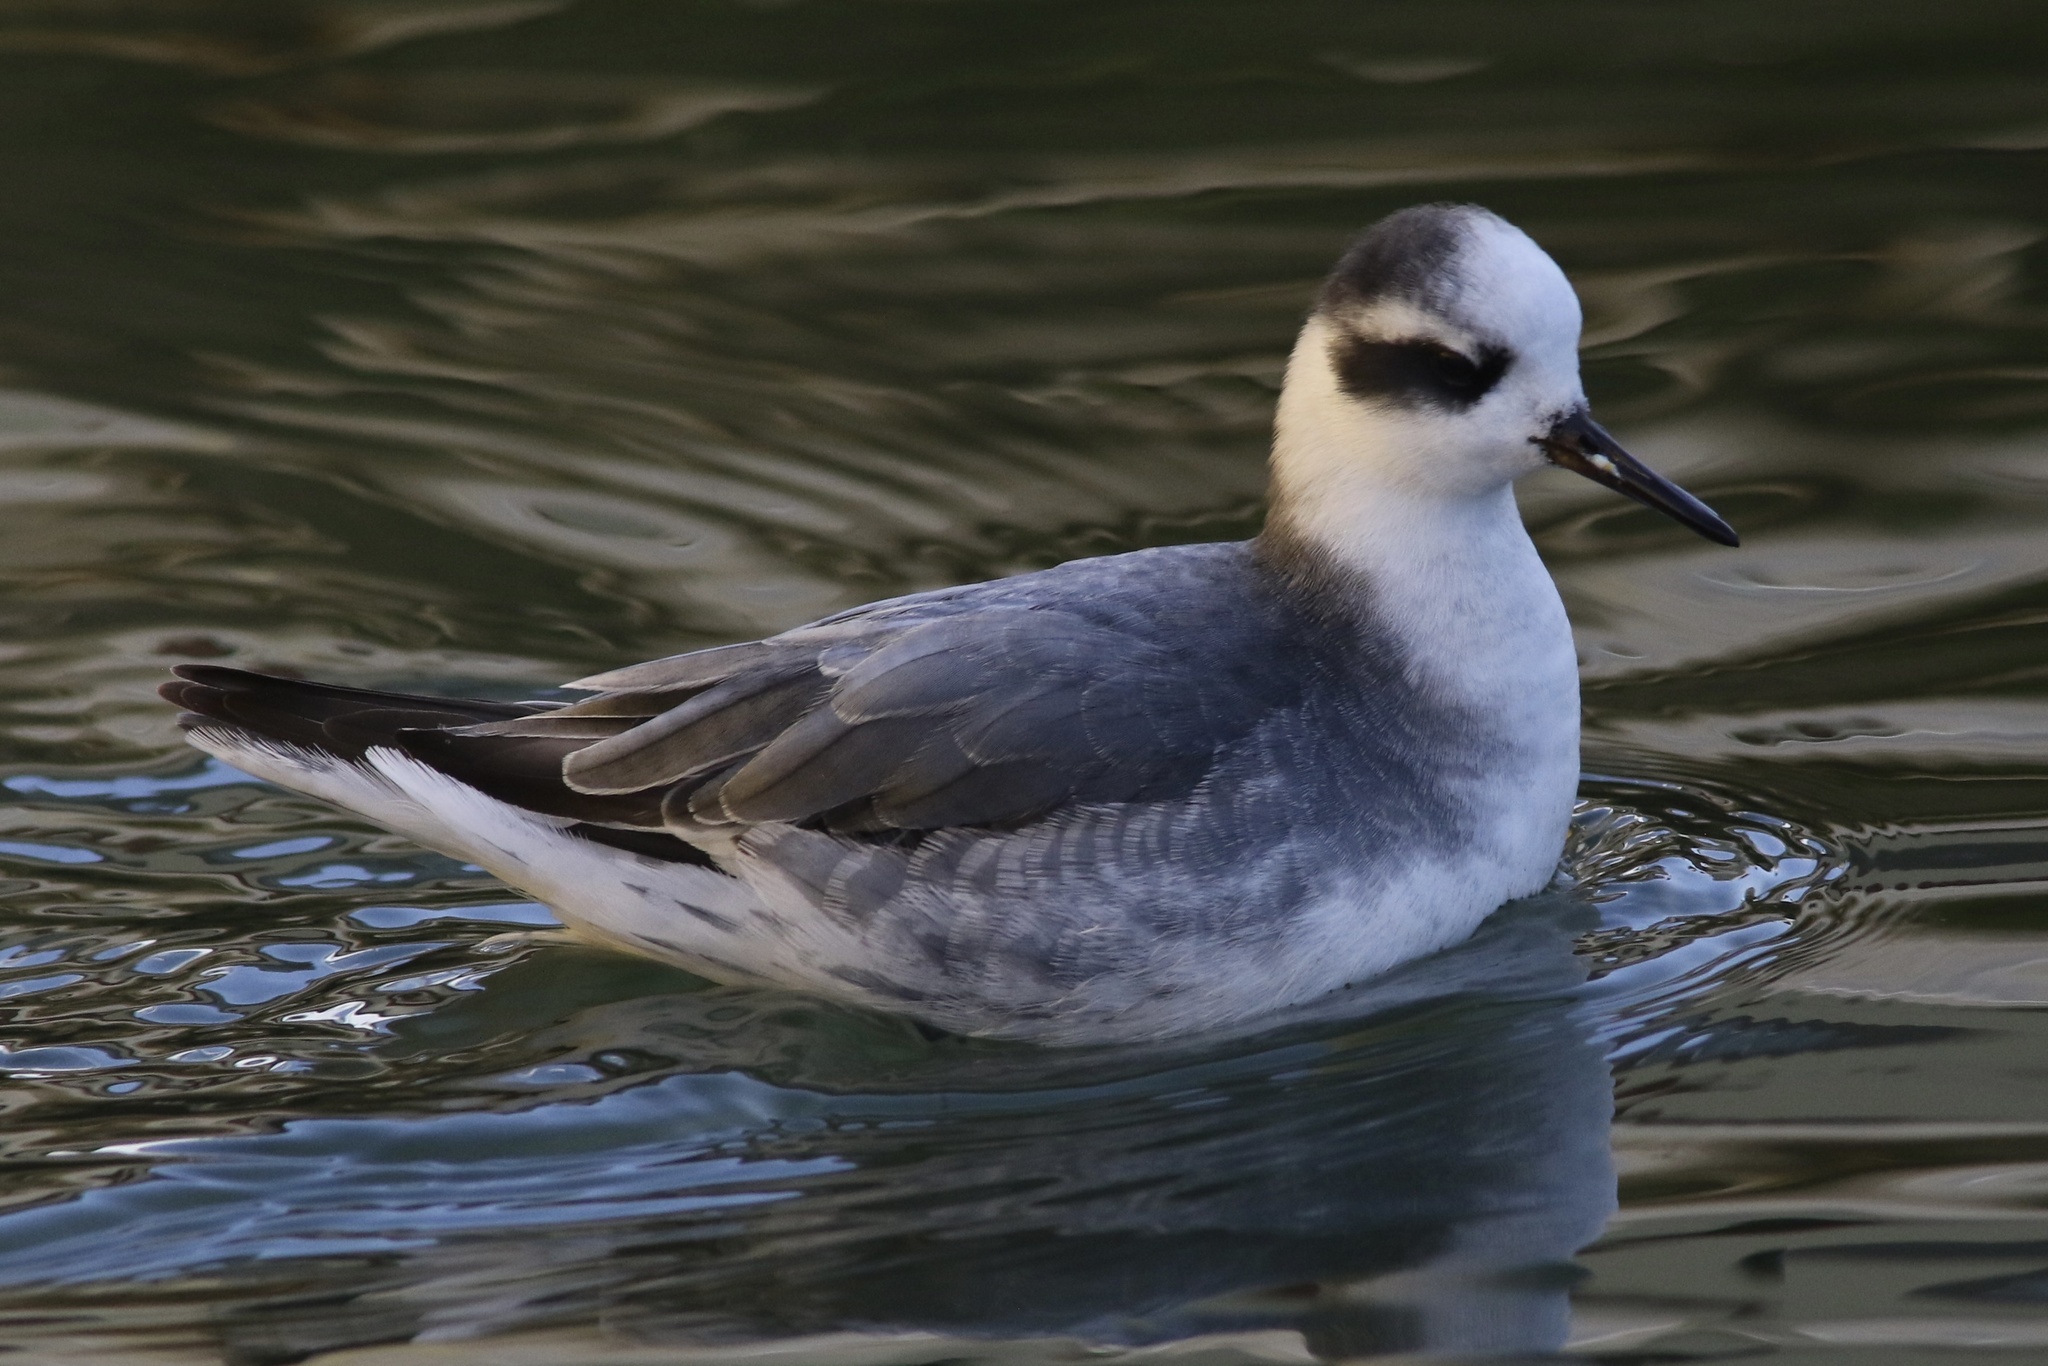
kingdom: Animalia
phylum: Chordata
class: Aves
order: Charadriiformes
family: Scolopacidae
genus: Phalaropus
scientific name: Phalaropus fulicarius
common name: Red phalarope
